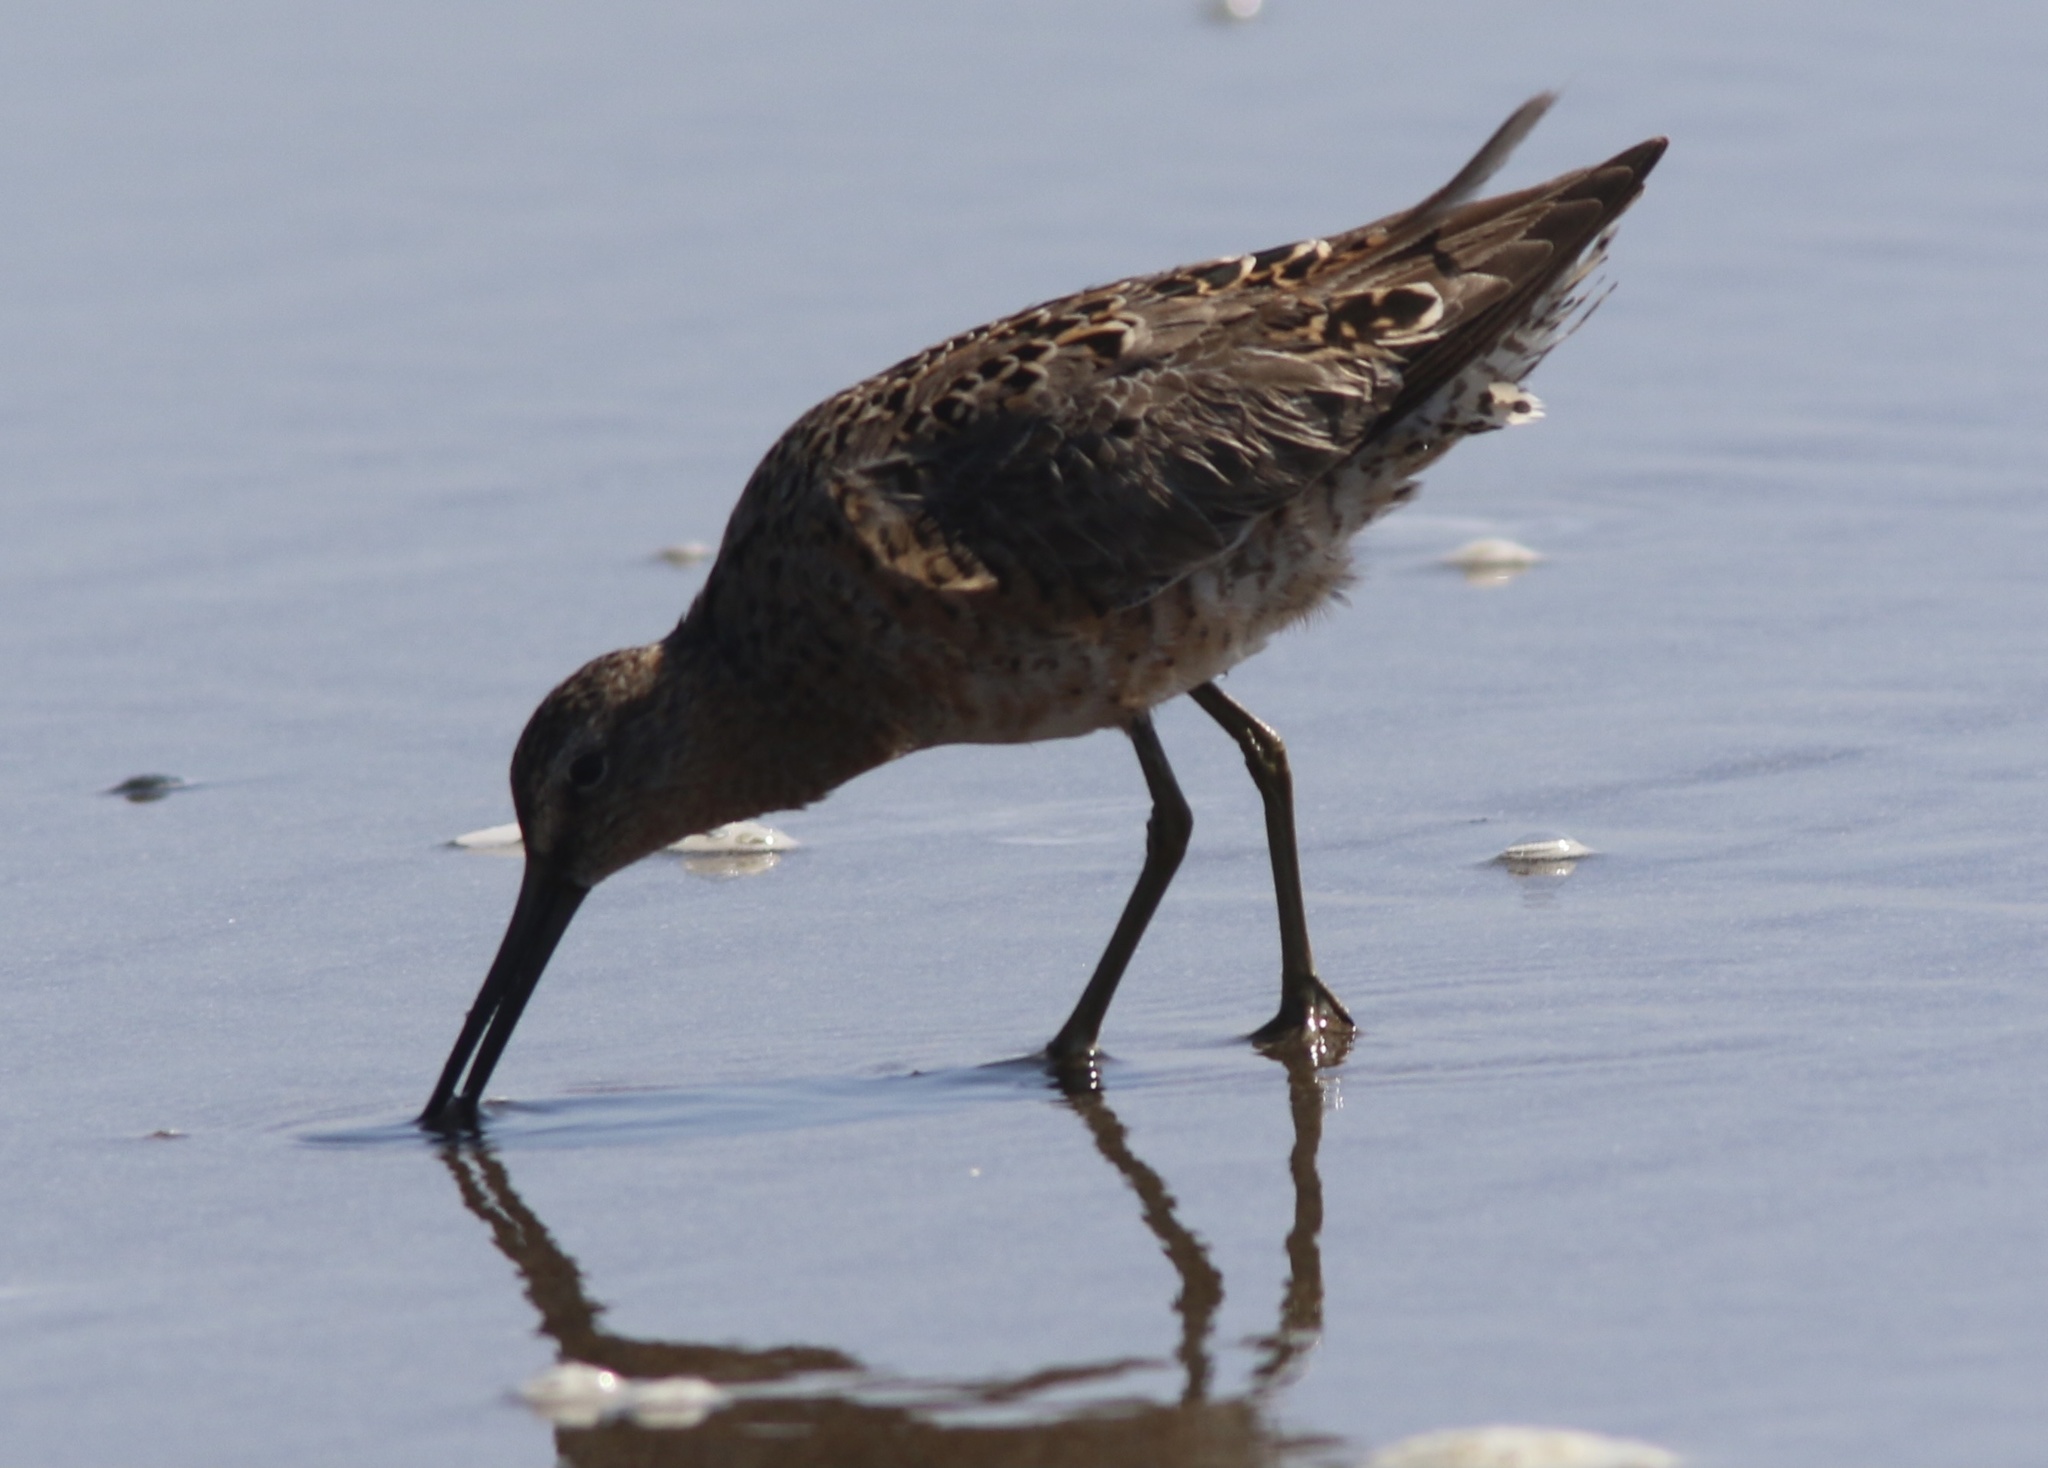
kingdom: Animalia
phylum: Chordata
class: Aves
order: Charadriiformes
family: Scolopacidae
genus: Limnodromus
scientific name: Limnodromus
